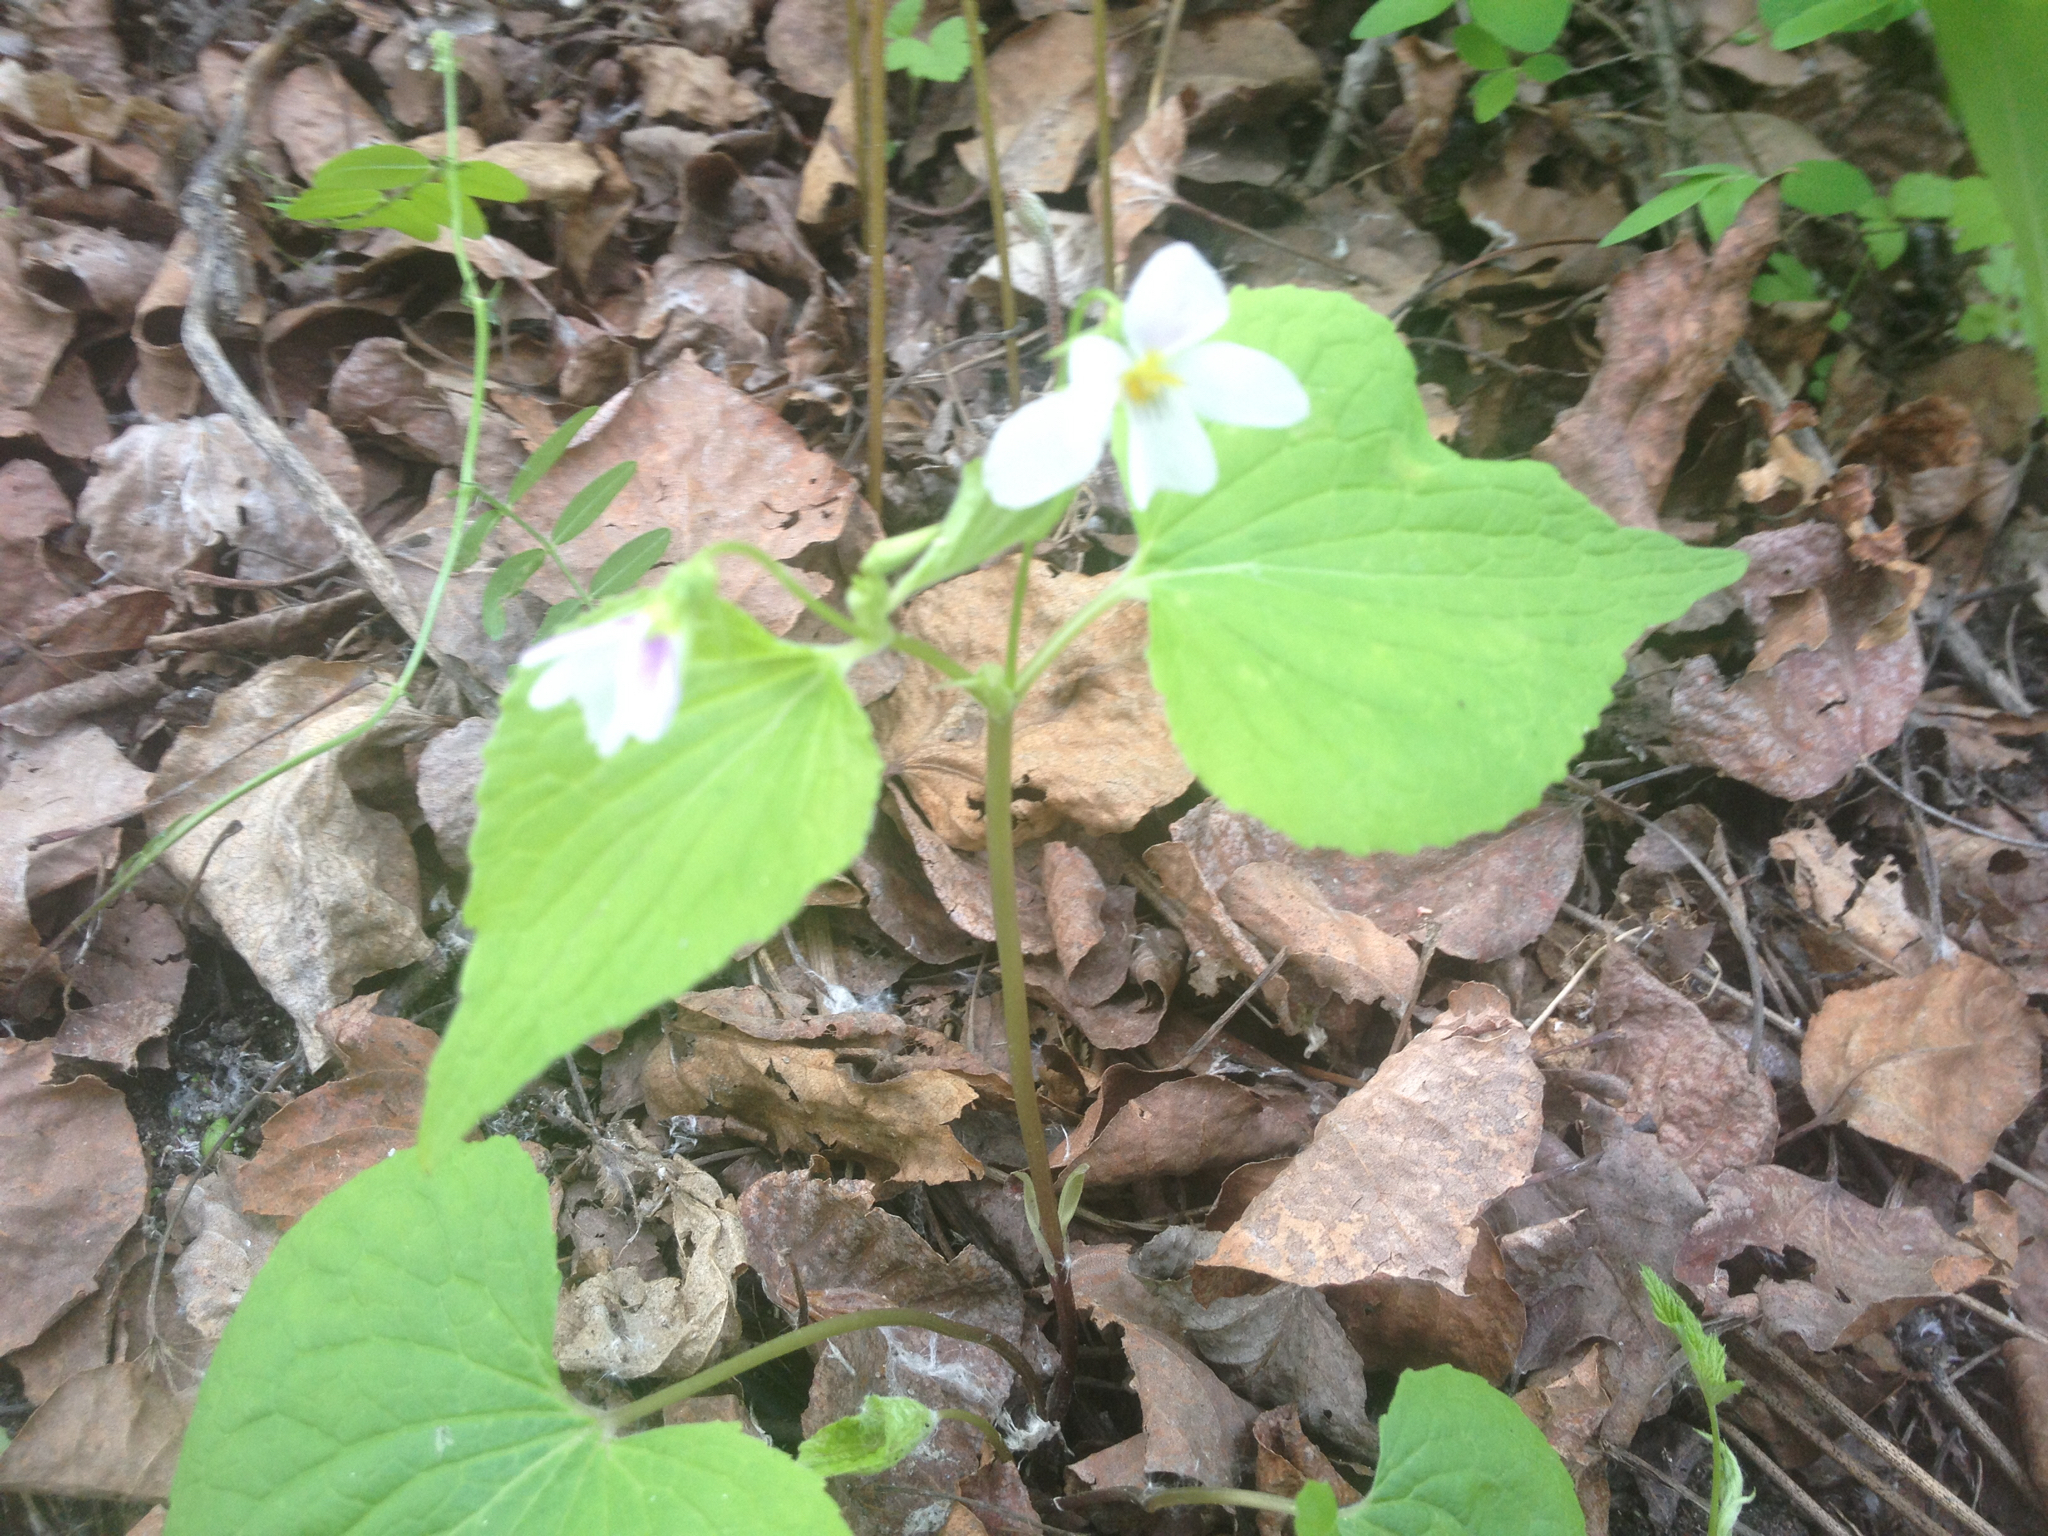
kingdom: Plantae
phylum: Tracheophyta
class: Magnoliopsida
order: Malpighiales
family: Violaceae
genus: Viola
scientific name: Viola canadensis
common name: Canada violet
